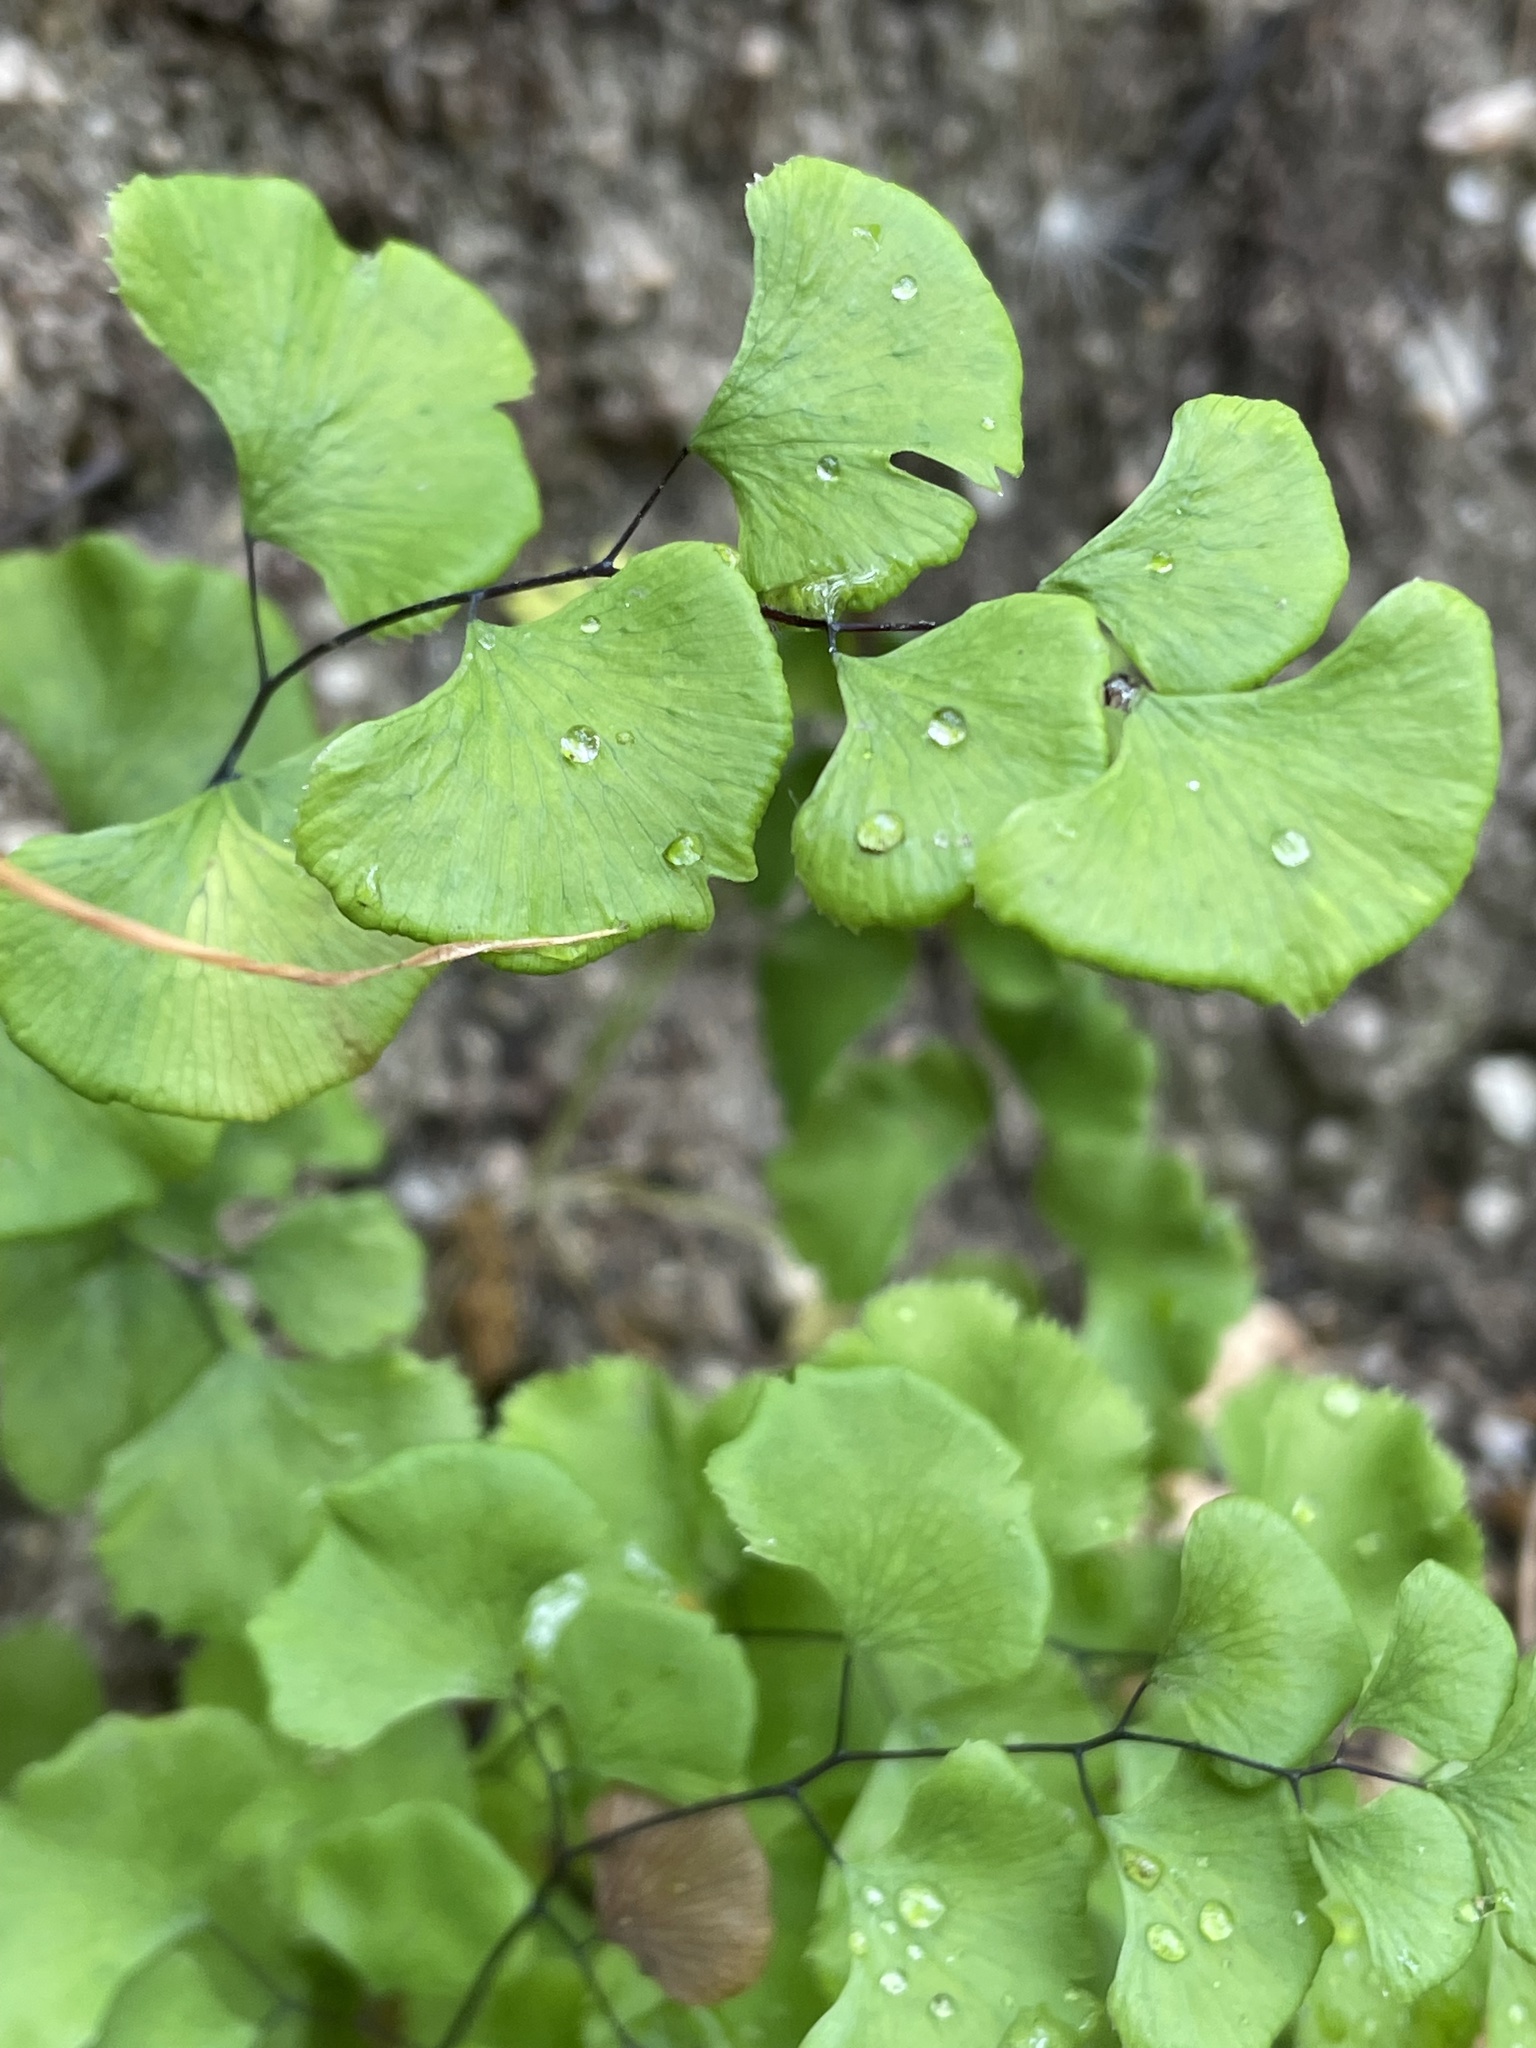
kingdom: Plantae
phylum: Tracheophyta
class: Polypodiopsida
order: Polypodiales
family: Pteridaceae
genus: Adiantum
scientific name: Adiantum jordanii
